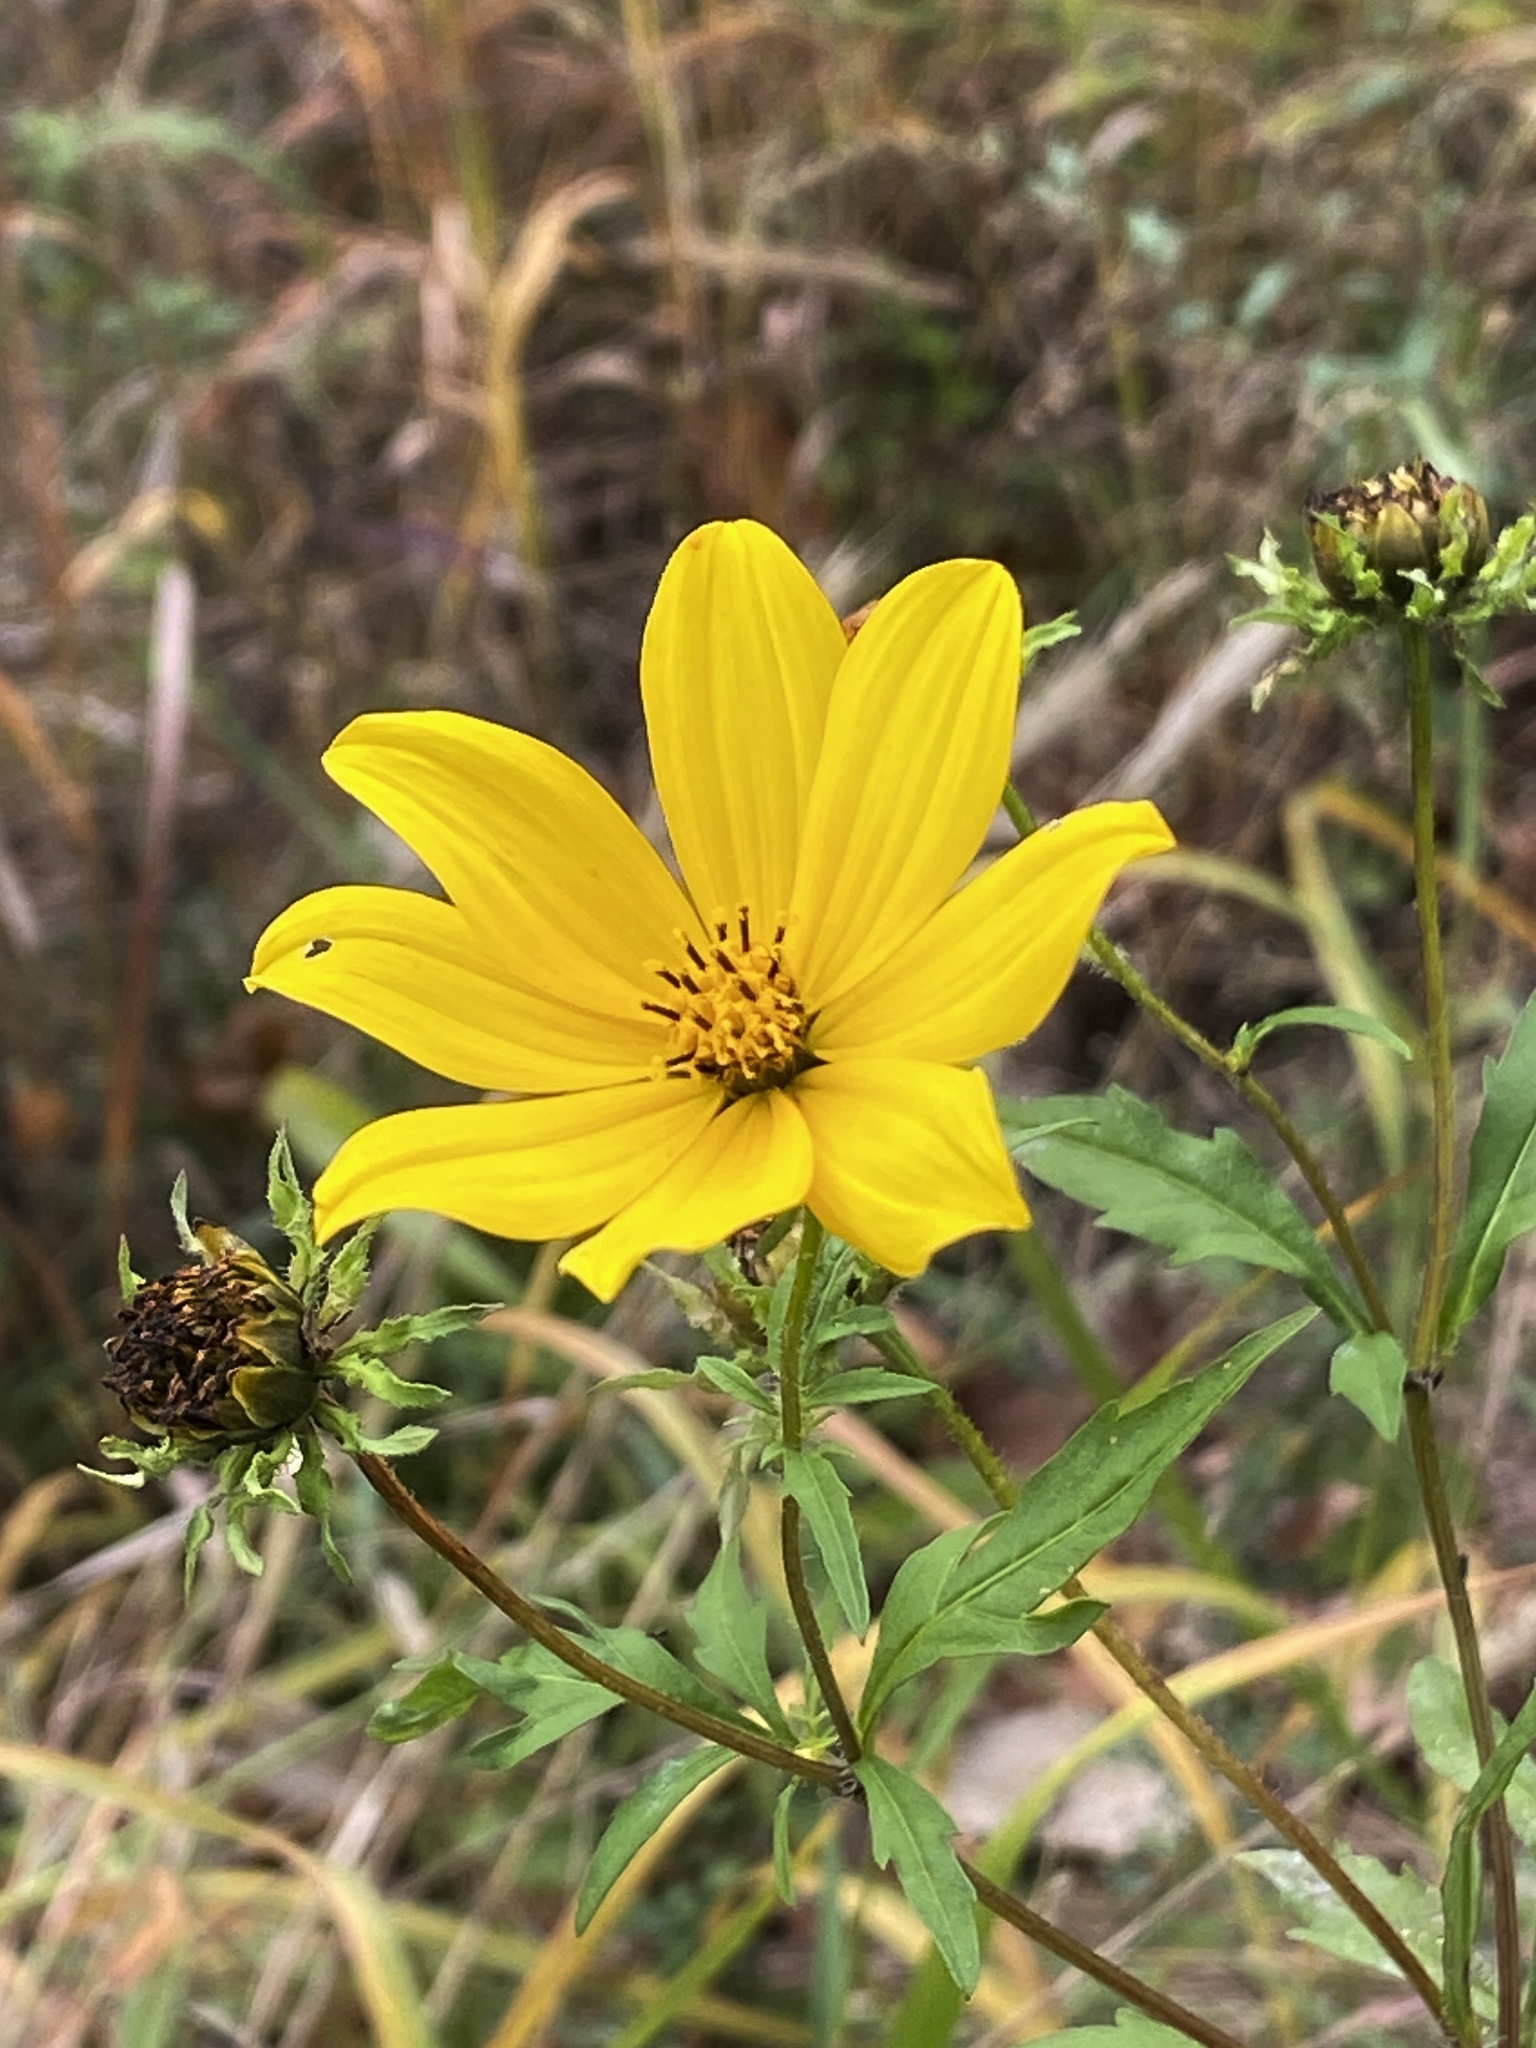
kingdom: Plantae
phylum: Tracheophyta
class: Magnoliopsida
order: Asterales
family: Asteraceae
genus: Bidens
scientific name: Bidens polylepis
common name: Awnless beggarticks
